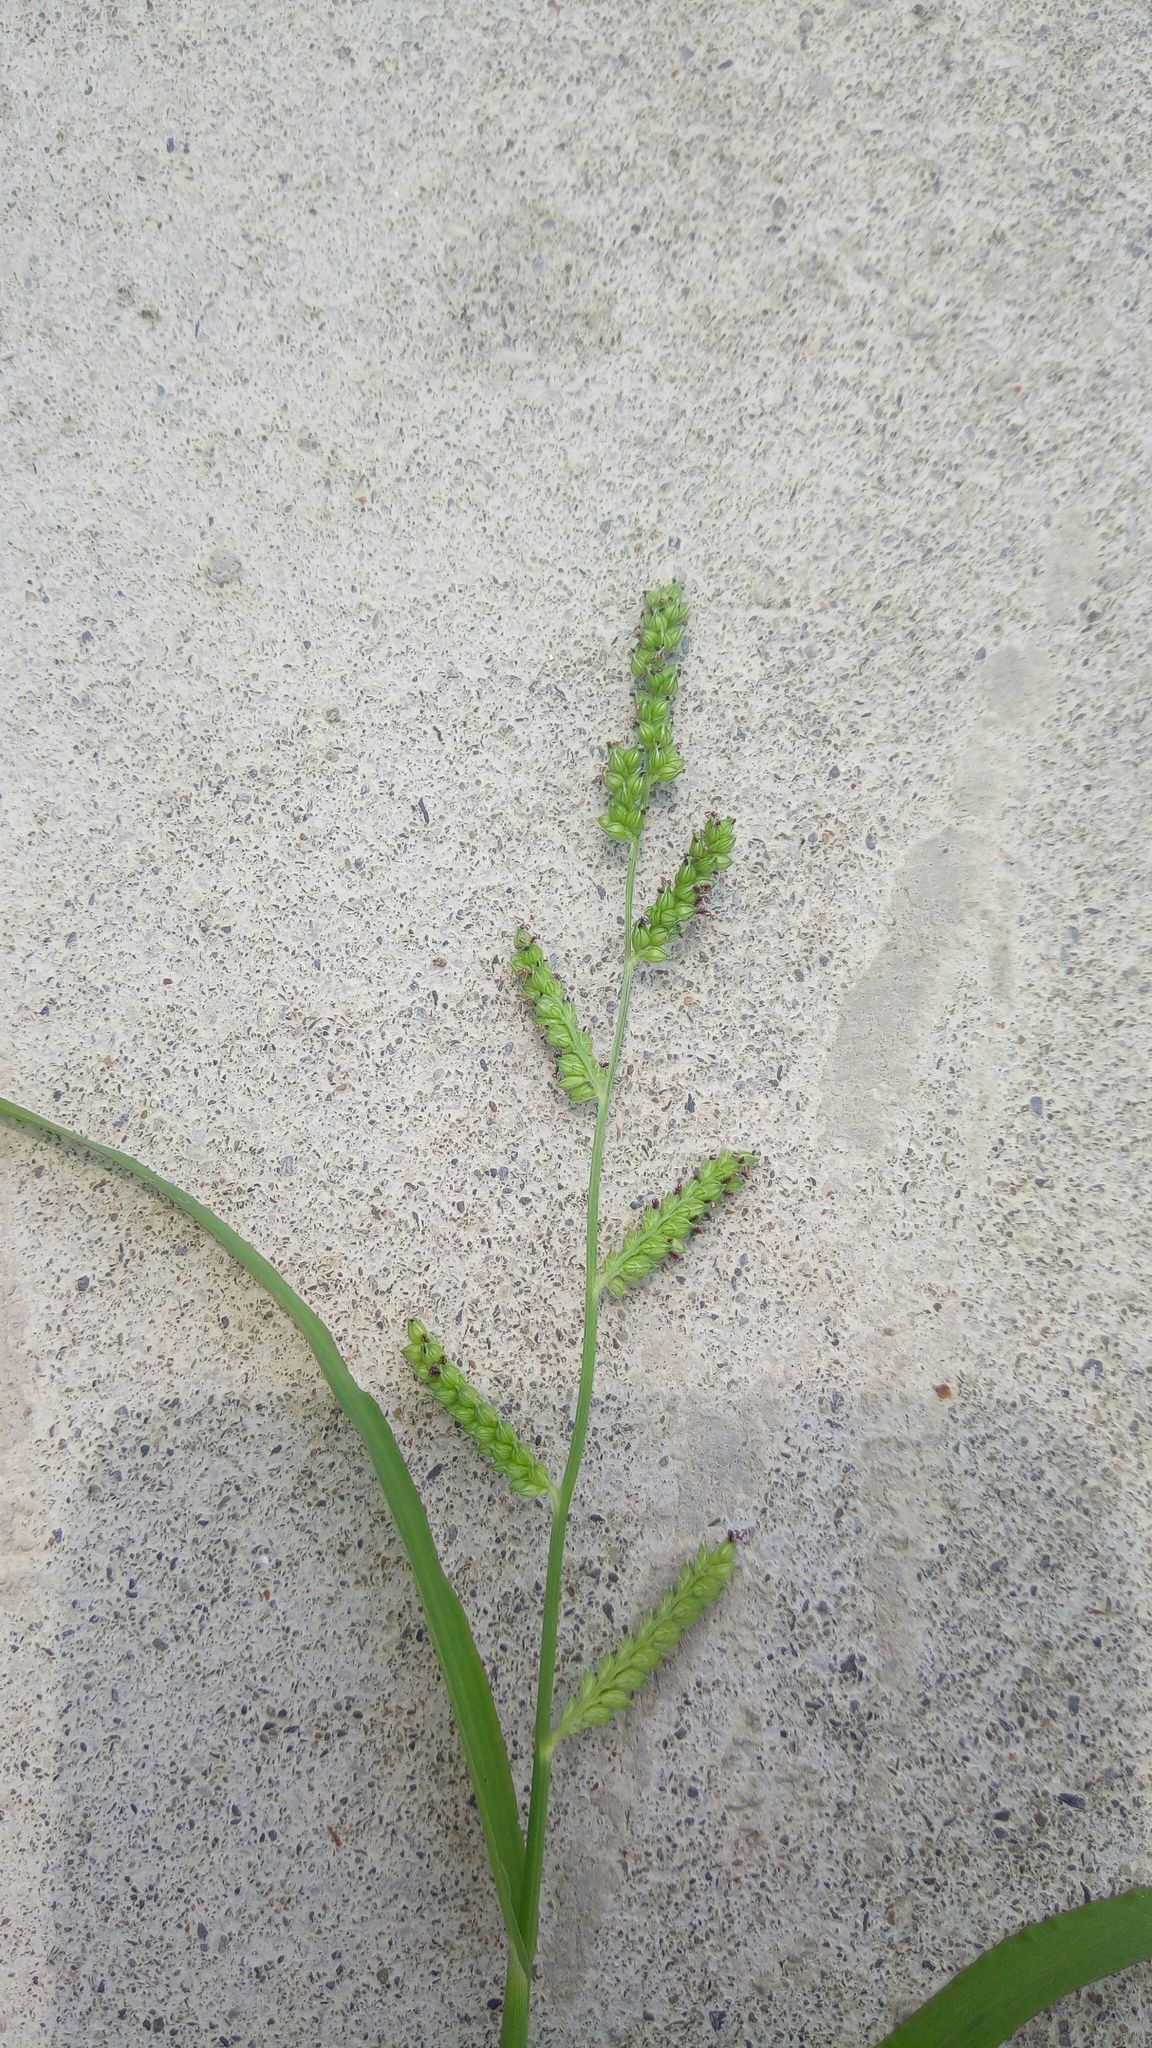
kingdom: Plantae
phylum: Tracheophyta
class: Liliopsida
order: Poales
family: Poaceae
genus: Echinochloa
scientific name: Echinochloa colonum
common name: Jungle rice
